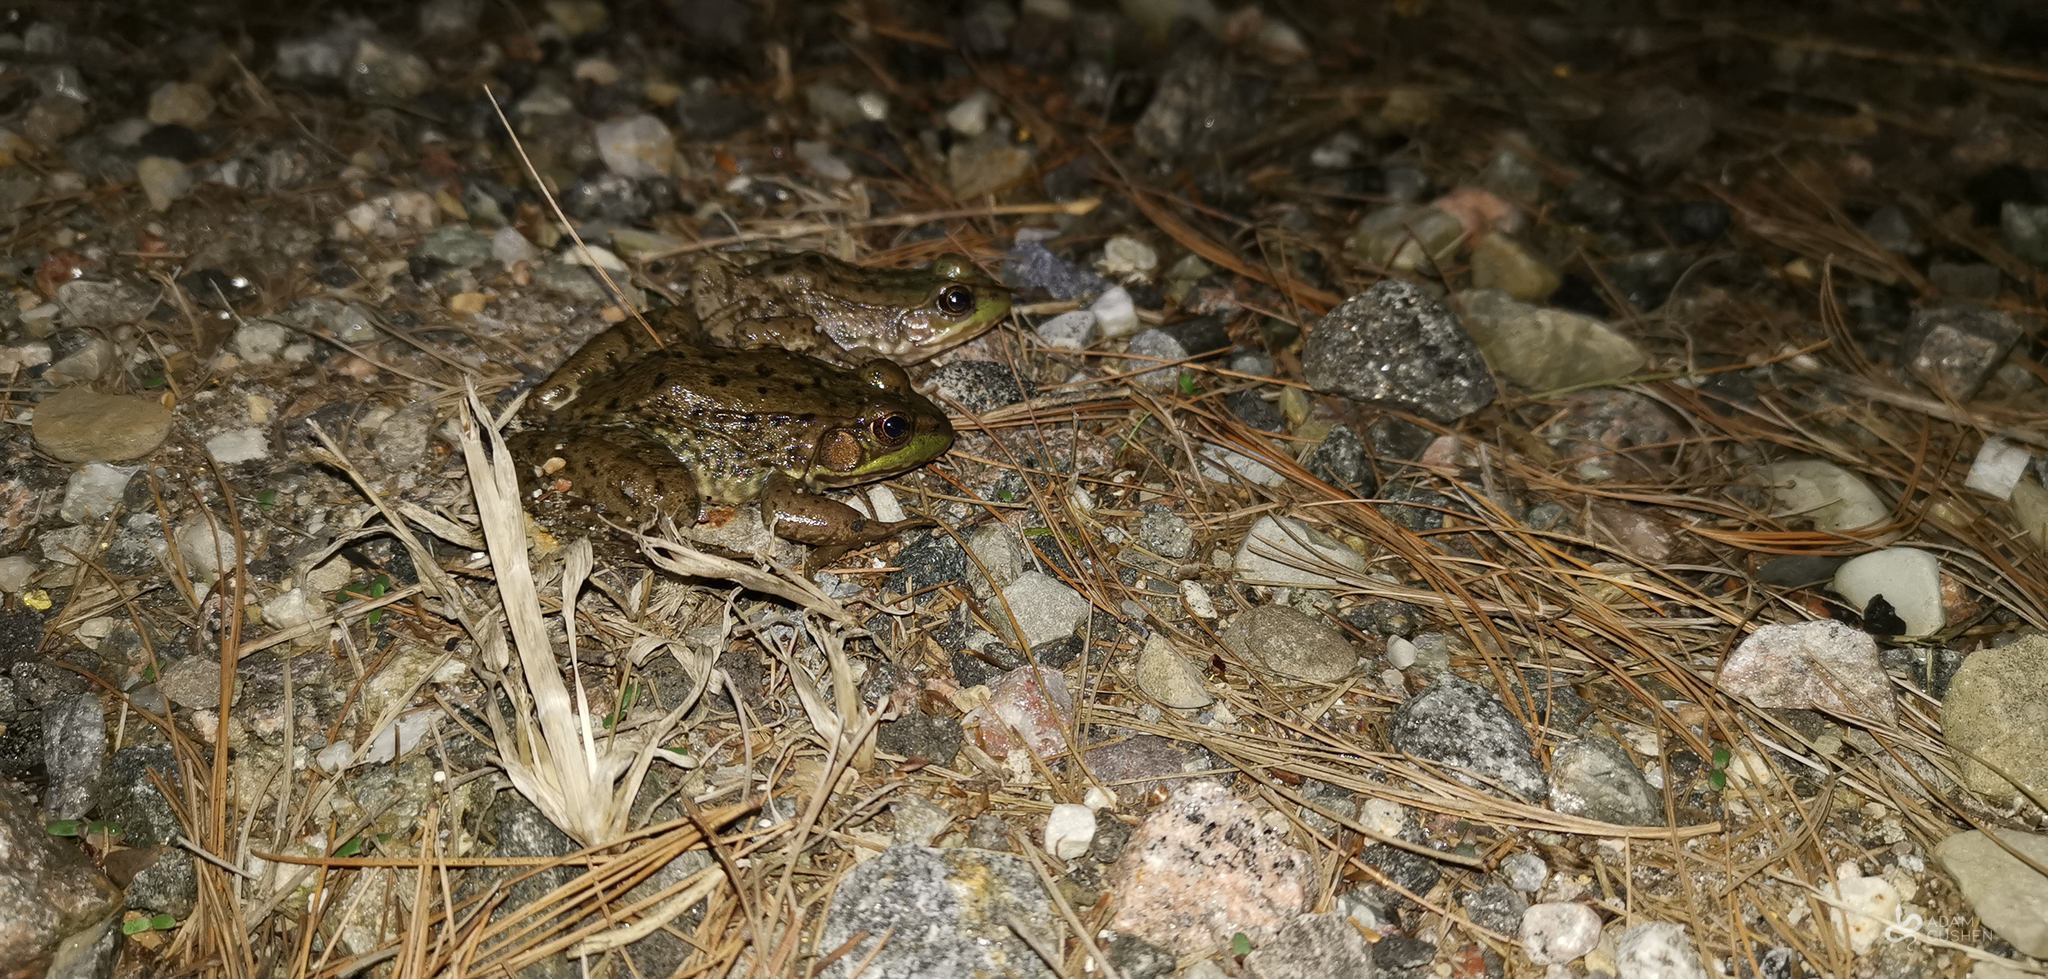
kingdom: Animalia
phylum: Chordata
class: Amphibia
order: Anura
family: Ranidae
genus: Lithobates
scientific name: Lithobates clamitans
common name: Green frog
